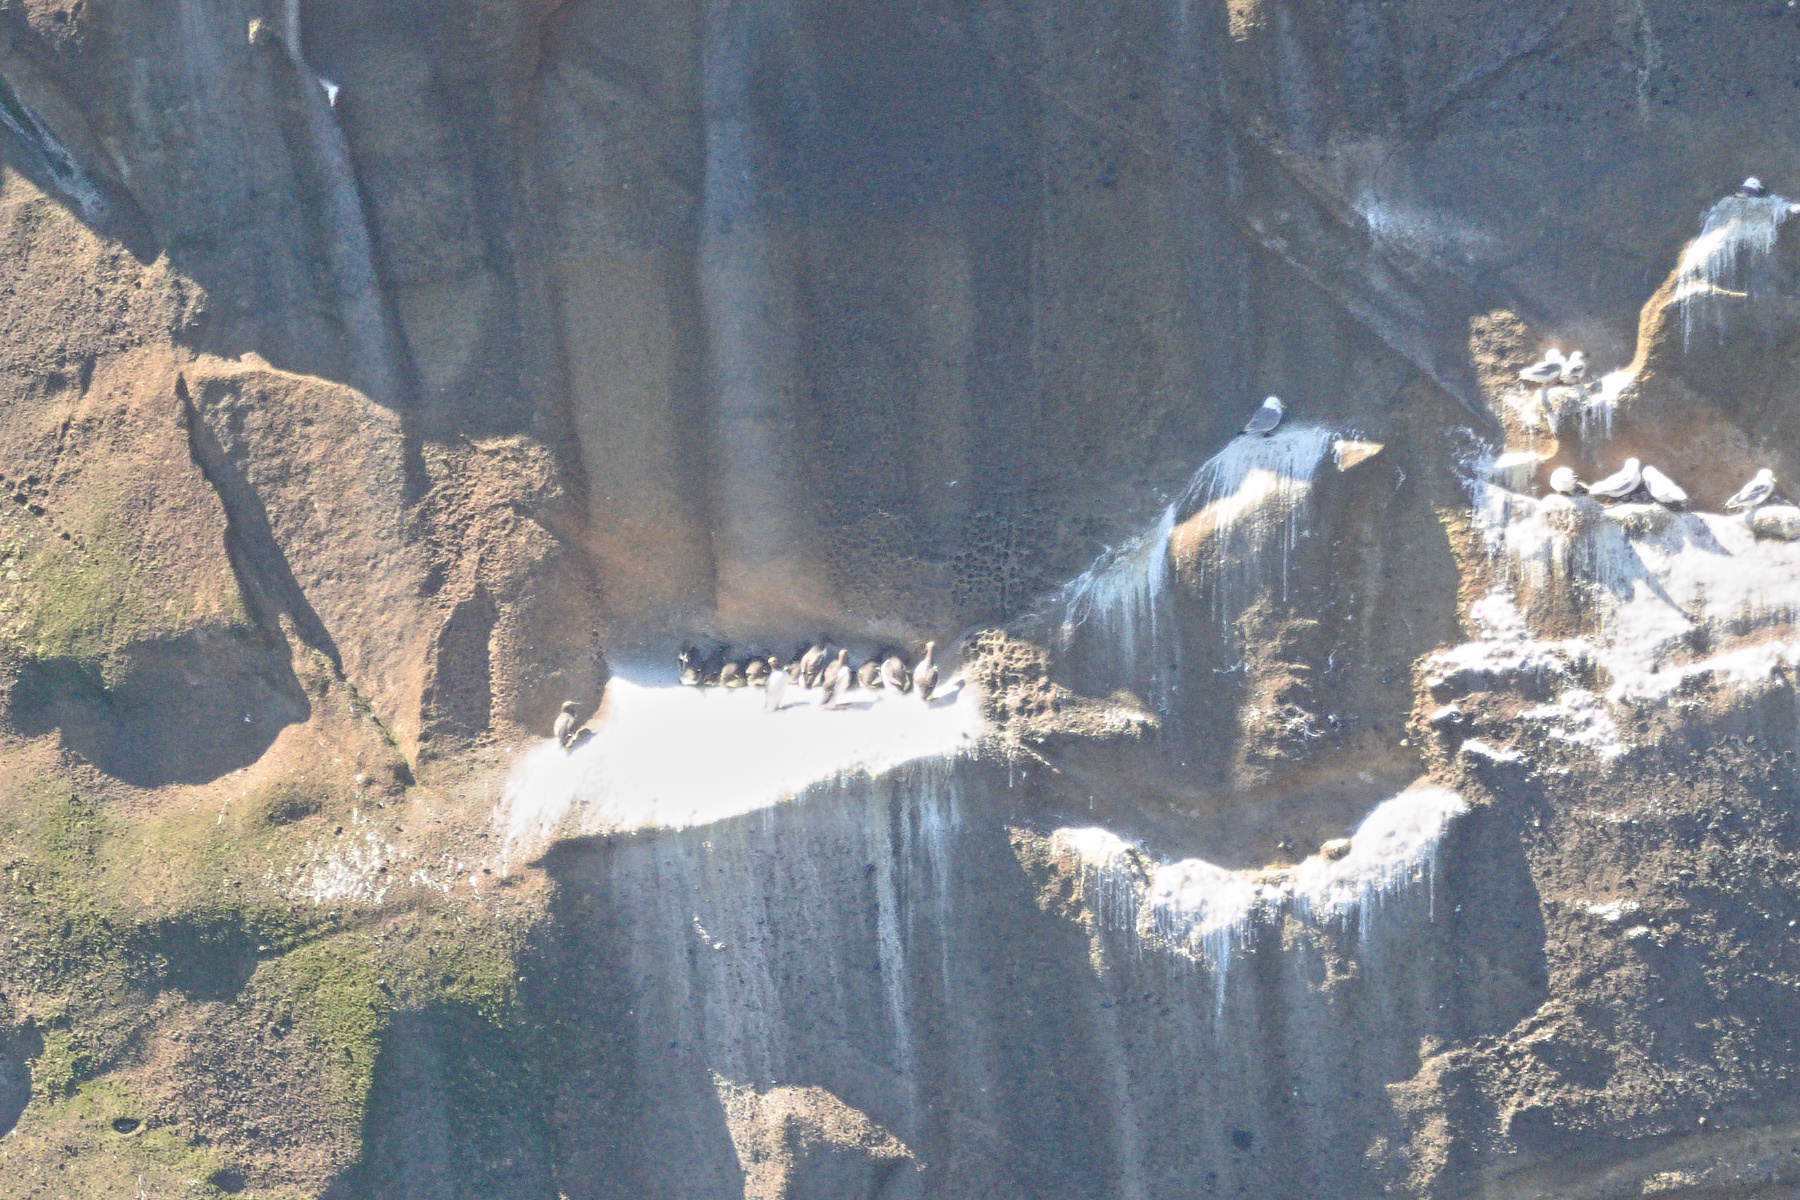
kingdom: Animalia
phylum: Chordata
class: Aves
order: Charadriiformes
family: Alcidae
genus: Uria
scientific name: Uria aalge
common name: Common murre
